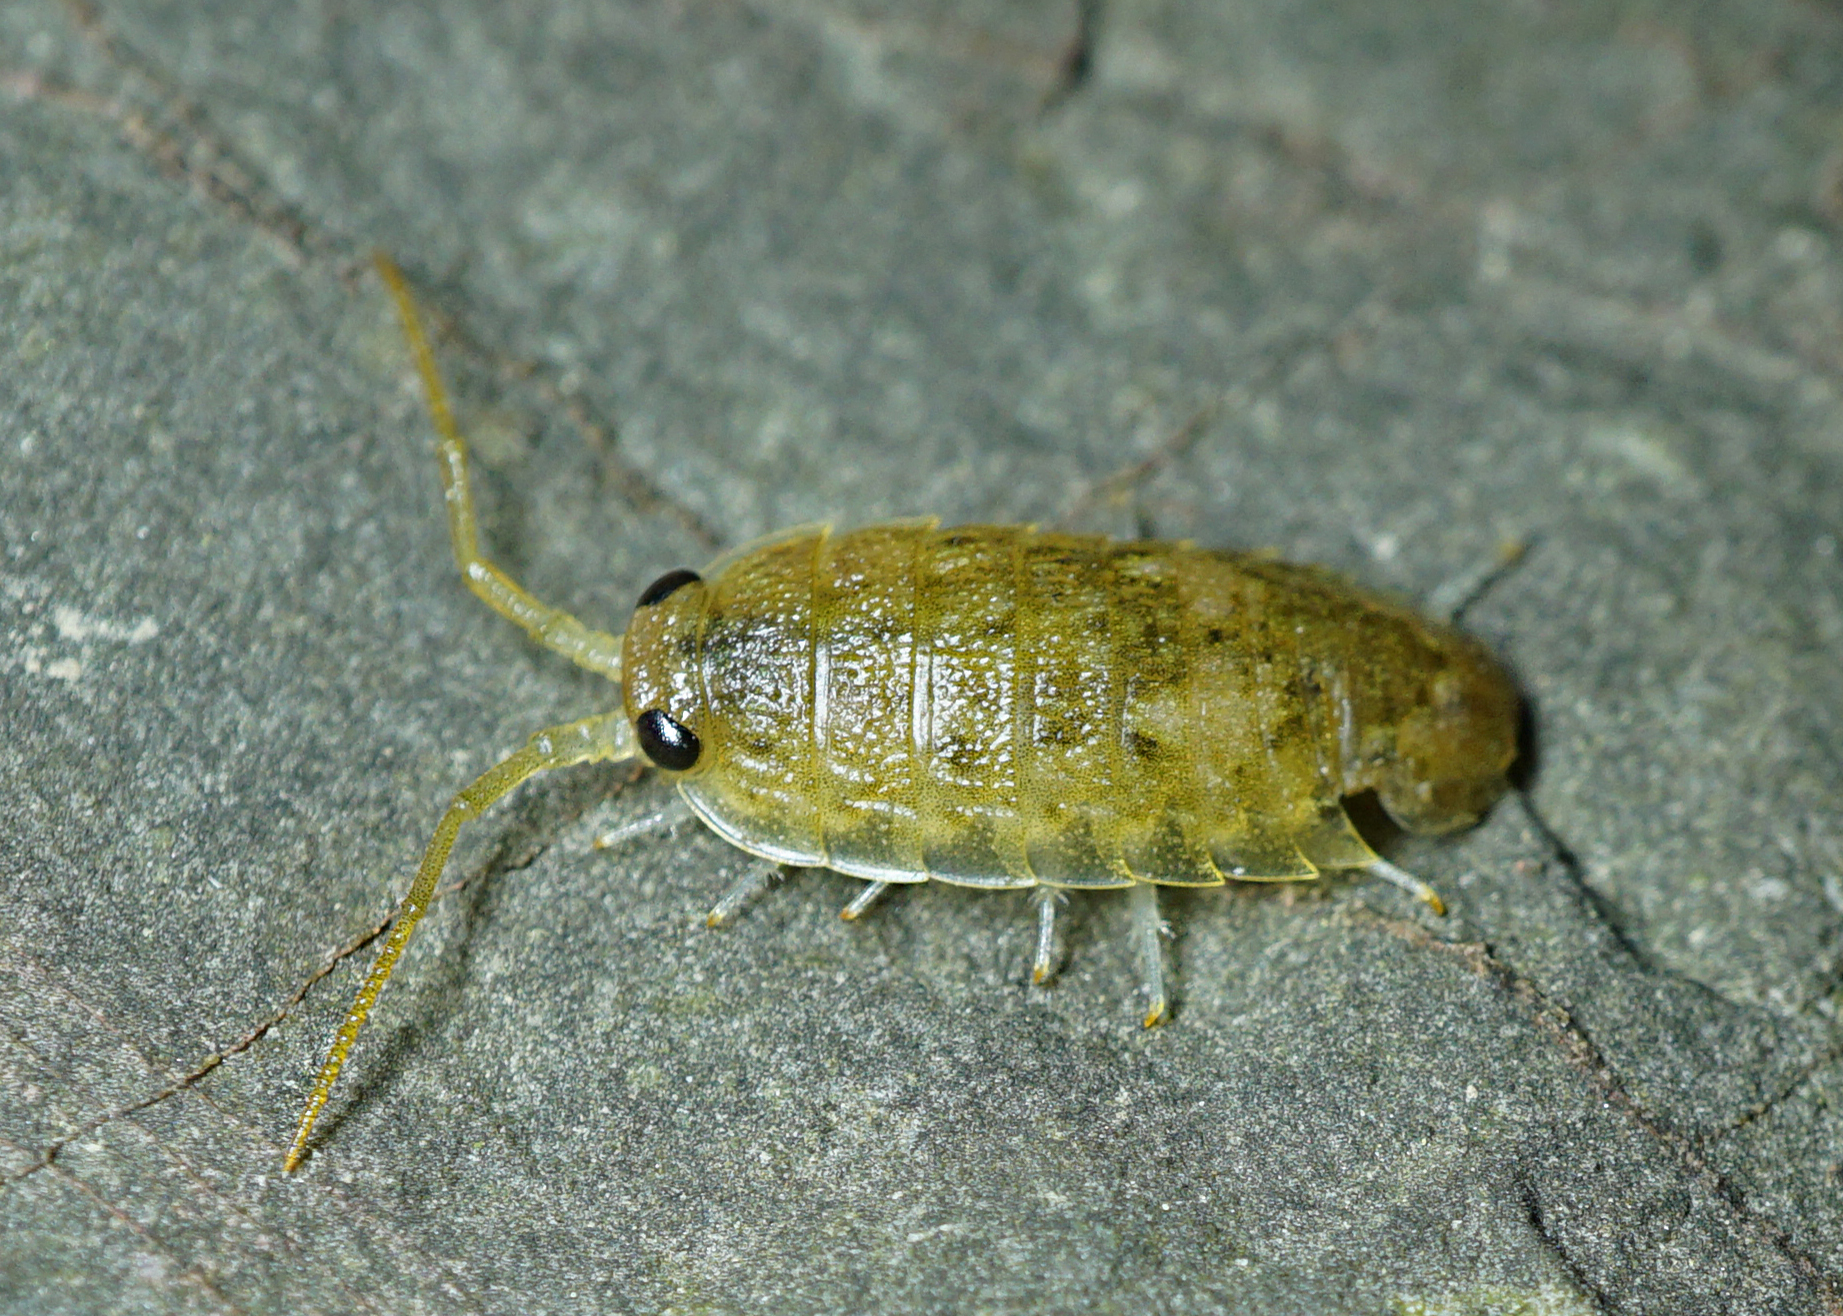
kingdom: Animalia
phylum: Arthropoda
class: Malacostraca
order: Isopoda
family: Ligiidae
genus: Ligia
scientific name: Ligia oceanica
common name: Sea slater
